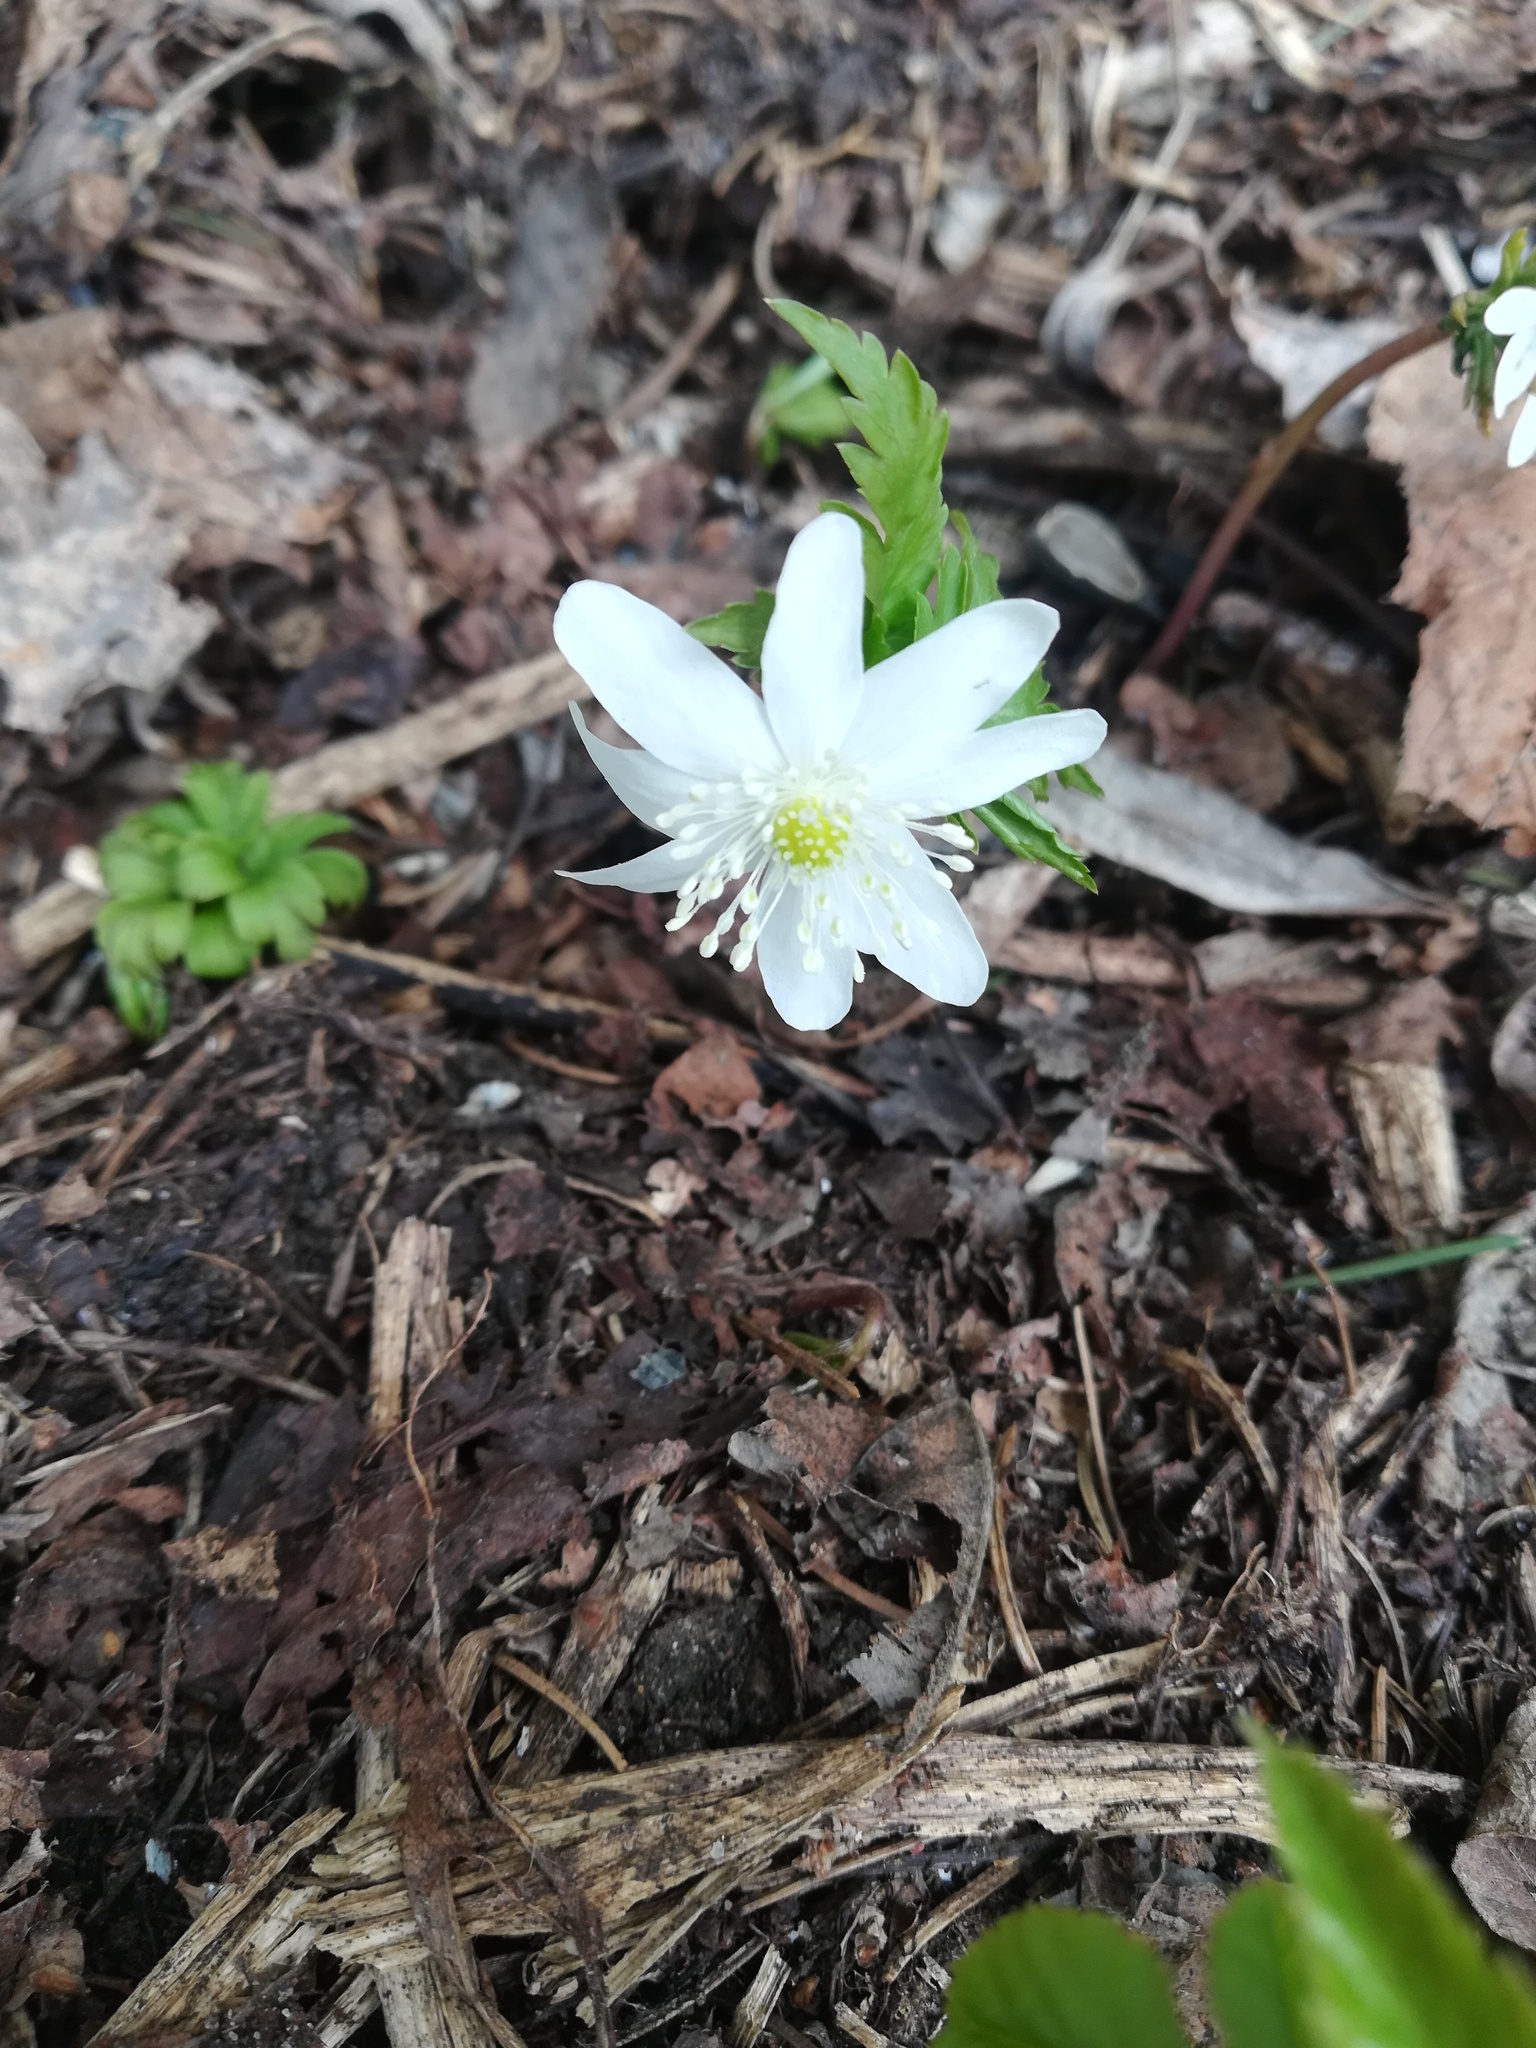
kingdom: Plantae
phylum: Tracheophyta
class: Magnoliopsida
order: Ranunculales
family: Ranunculaceae
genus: Anemone
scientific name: Anemone altaica
